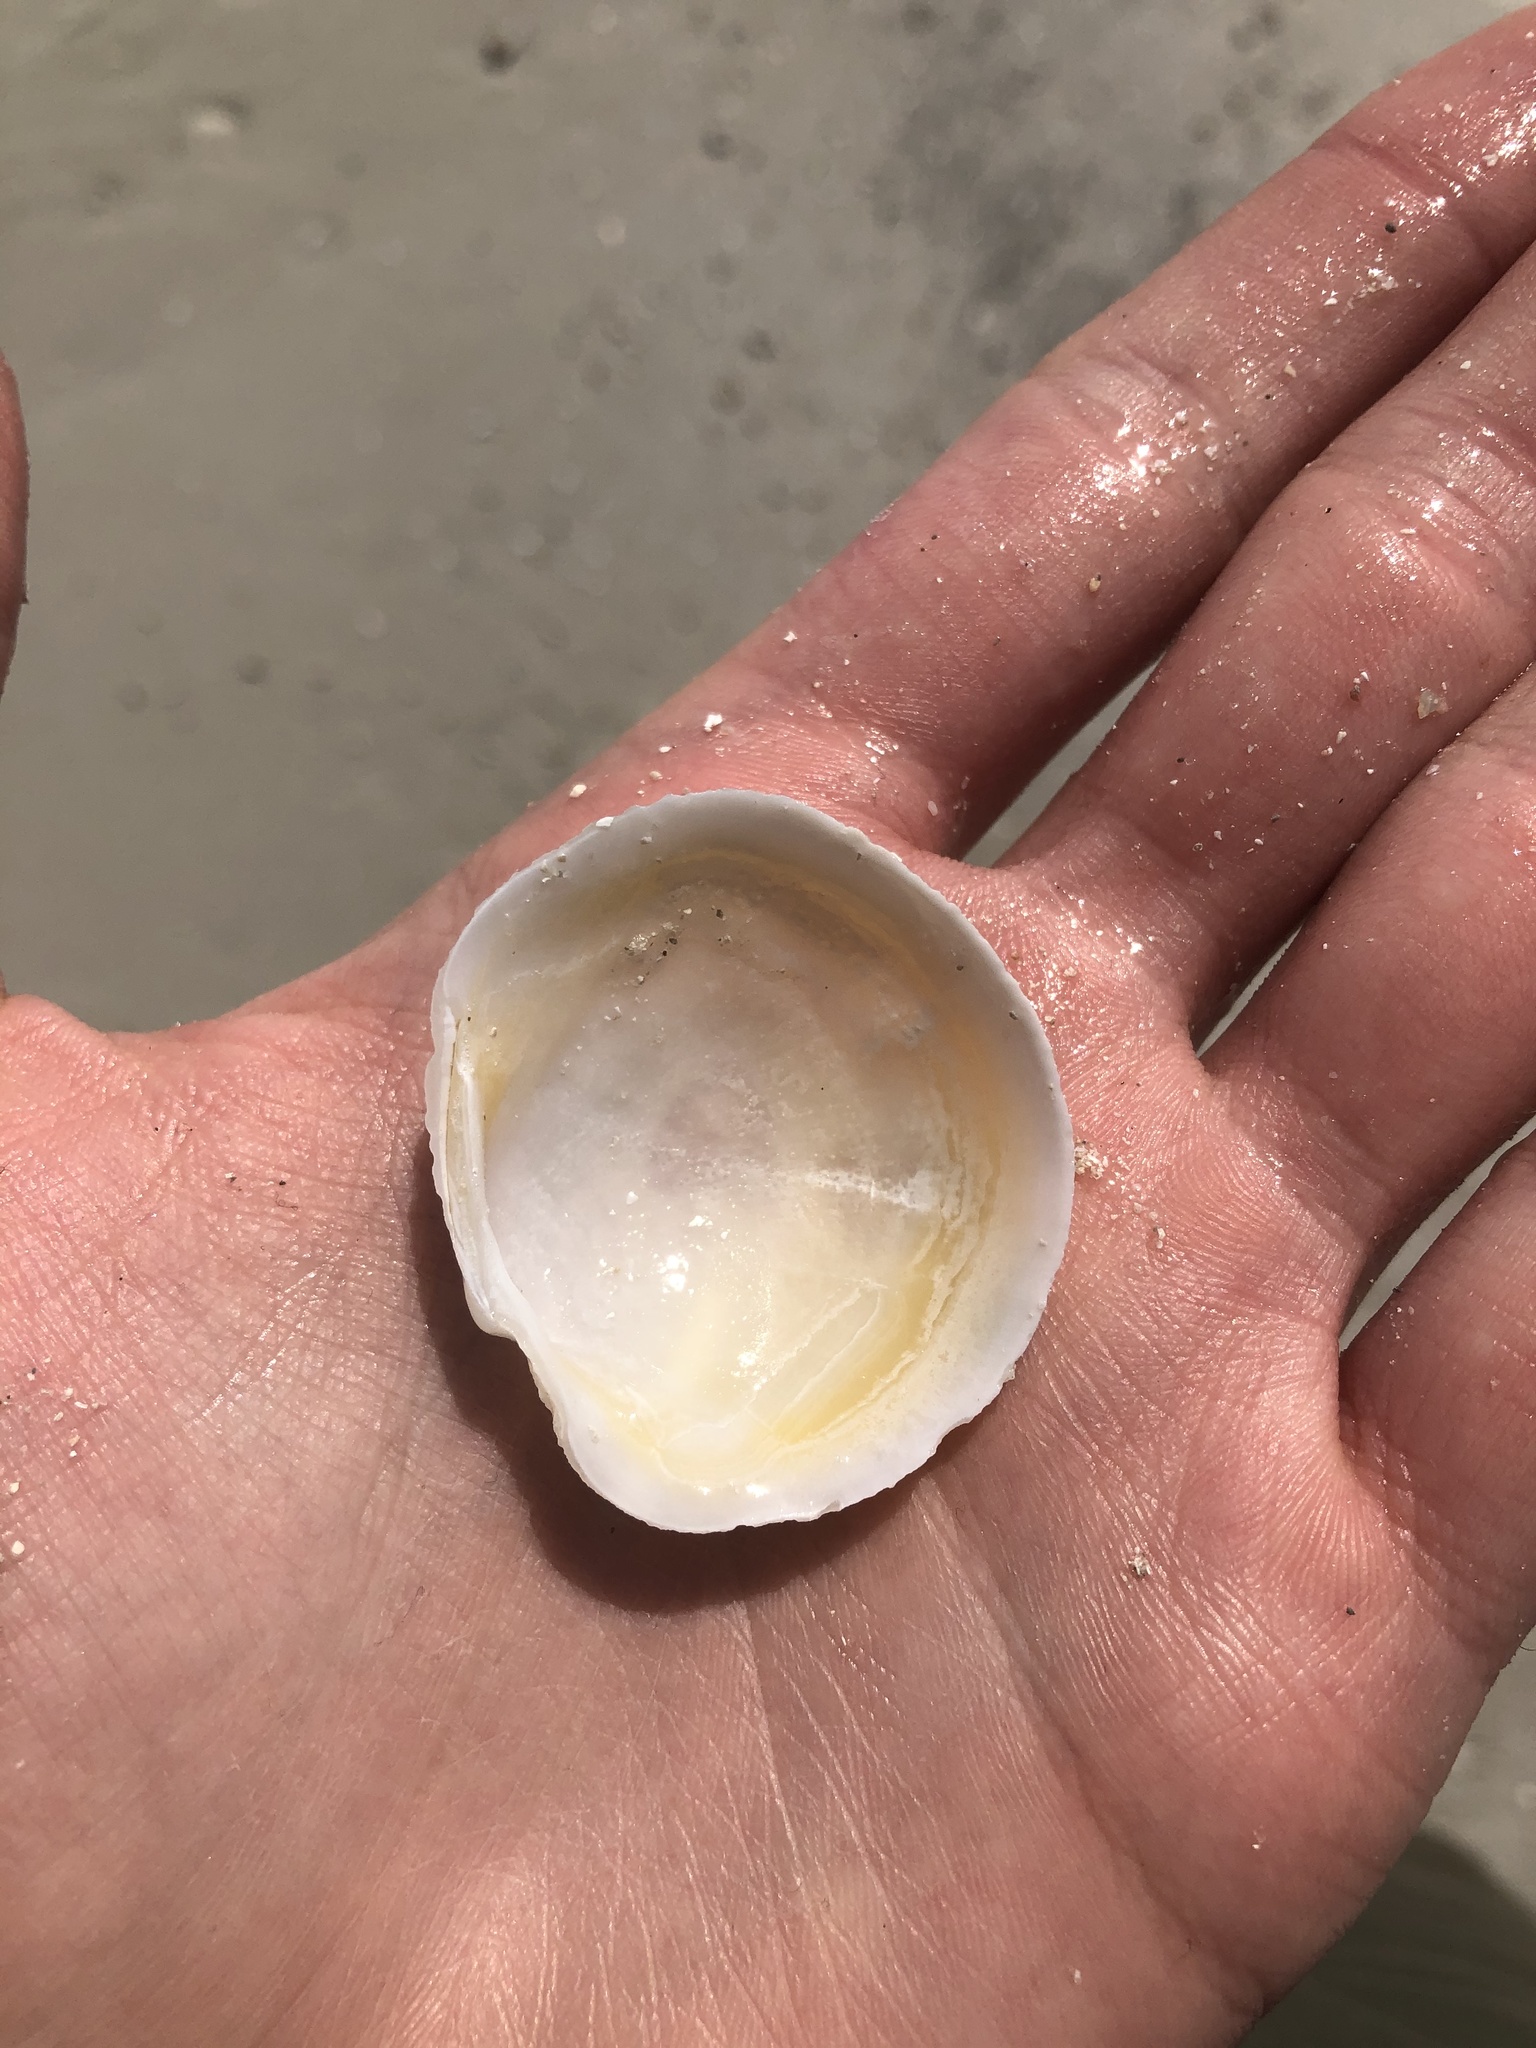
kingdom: Animalia
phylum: Mollusca
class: Bivalvia
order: Lucinida
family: Lucinidae
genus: Anodontia
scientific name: Anodontia alba
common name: Buttercup lucine
